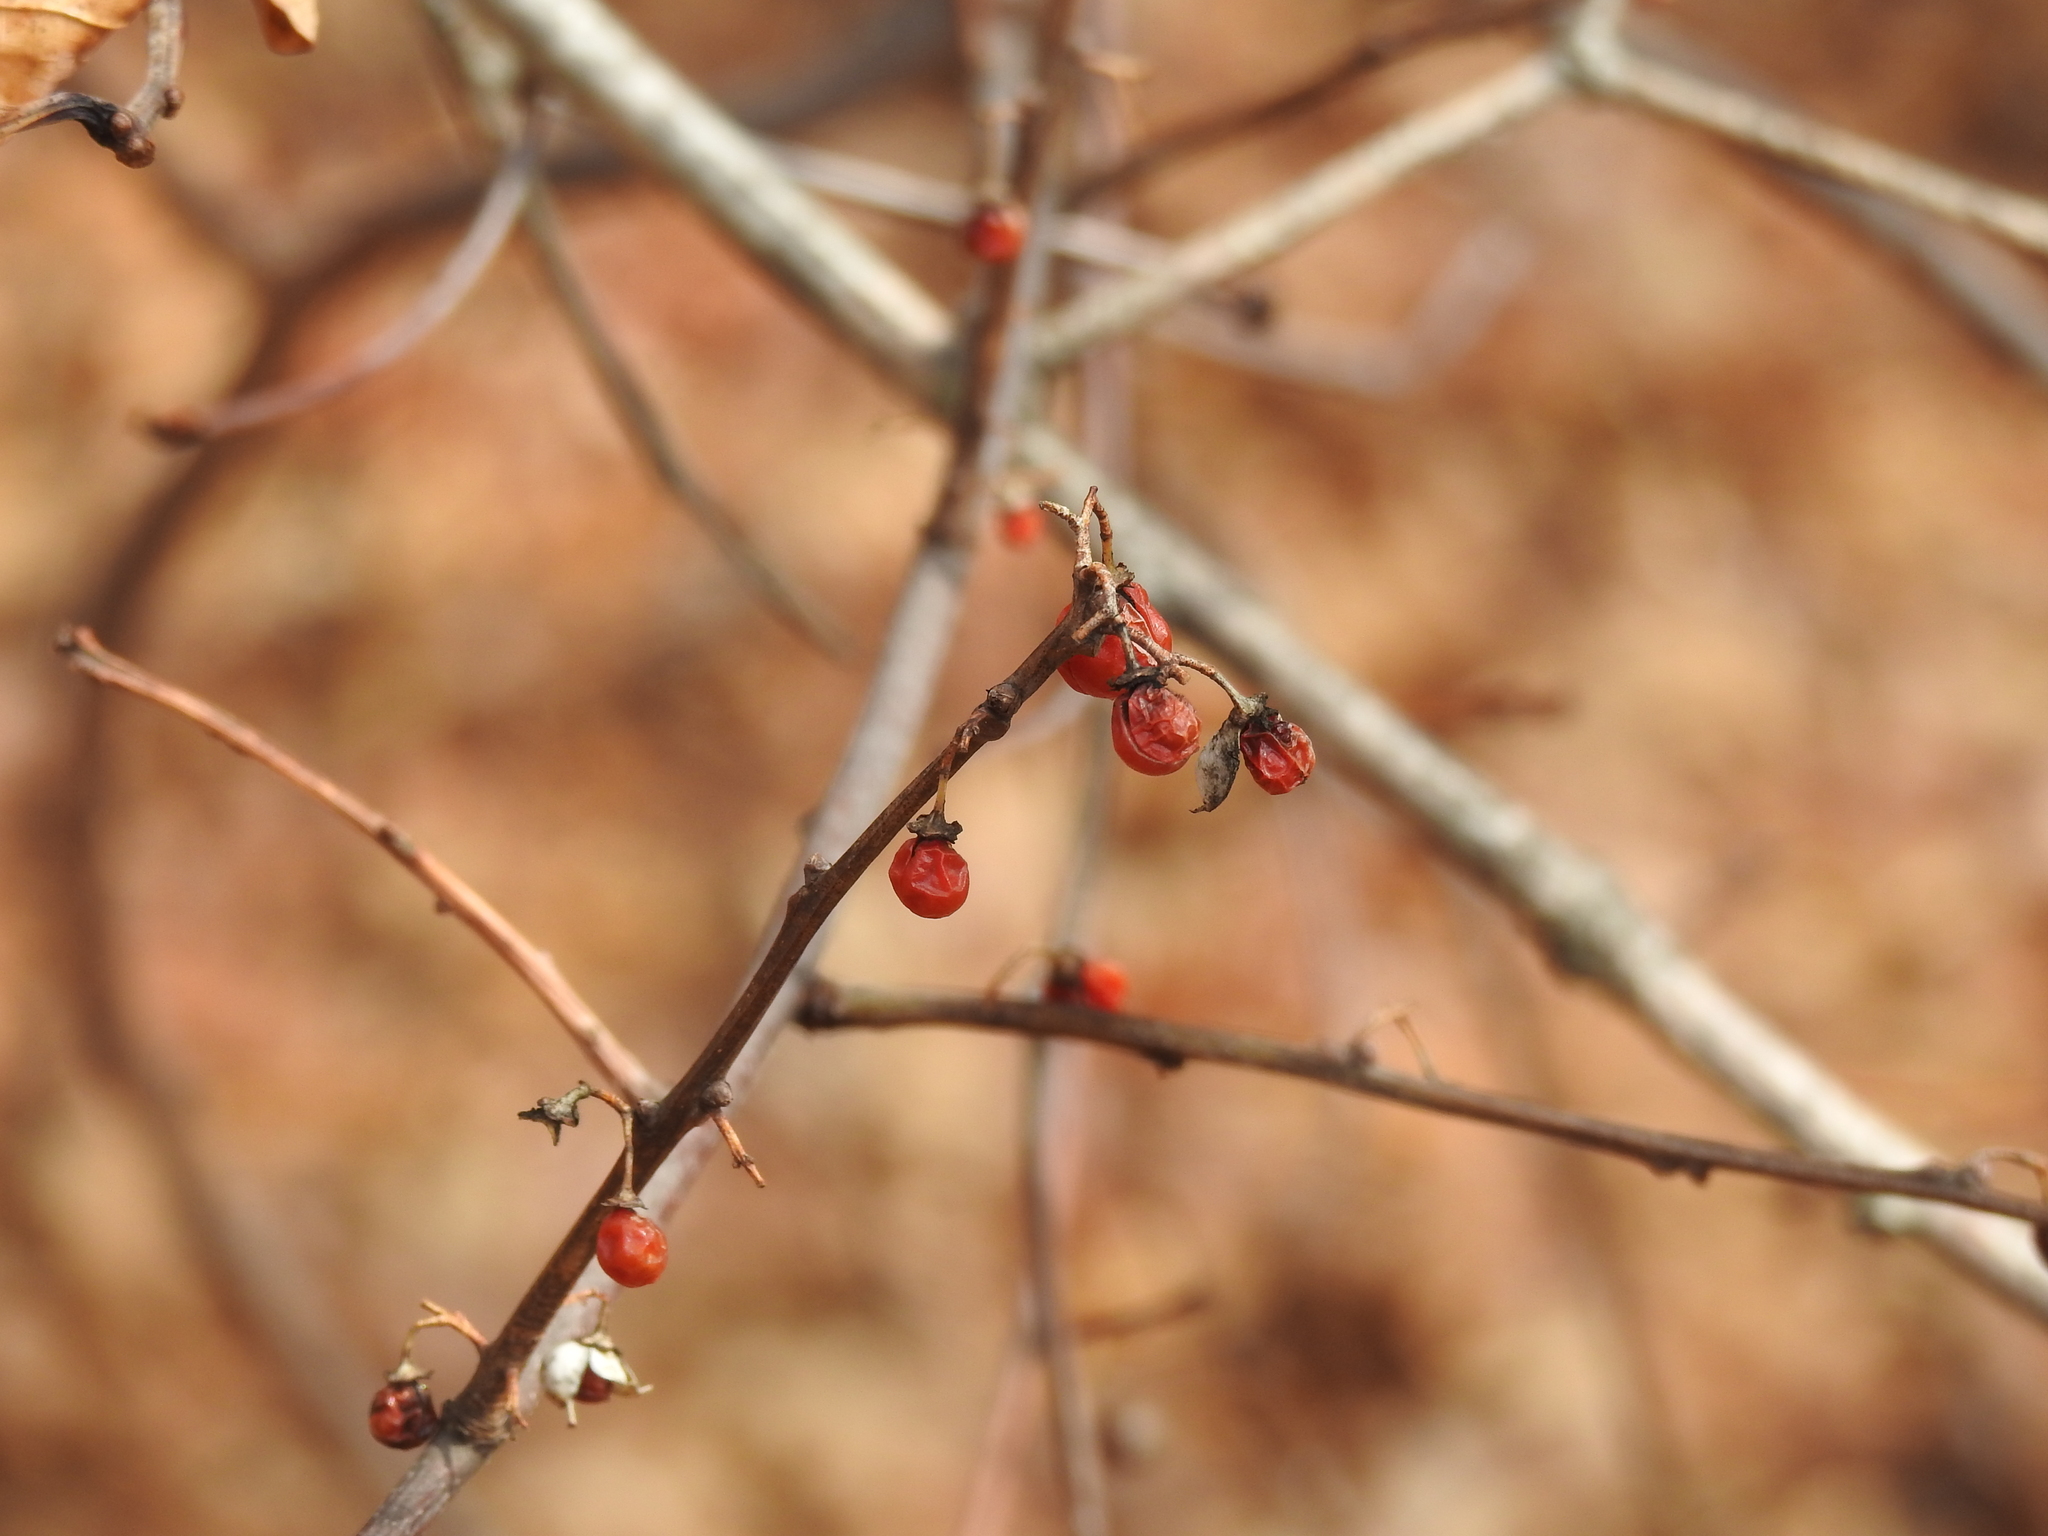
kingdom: Plantae
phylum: Tracheophyta
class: Magnoliopsida
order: Celastrales
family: Celastraceae
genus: Celastrus
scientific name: Celastrus orbiculatus
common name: Oriental bittersweet
